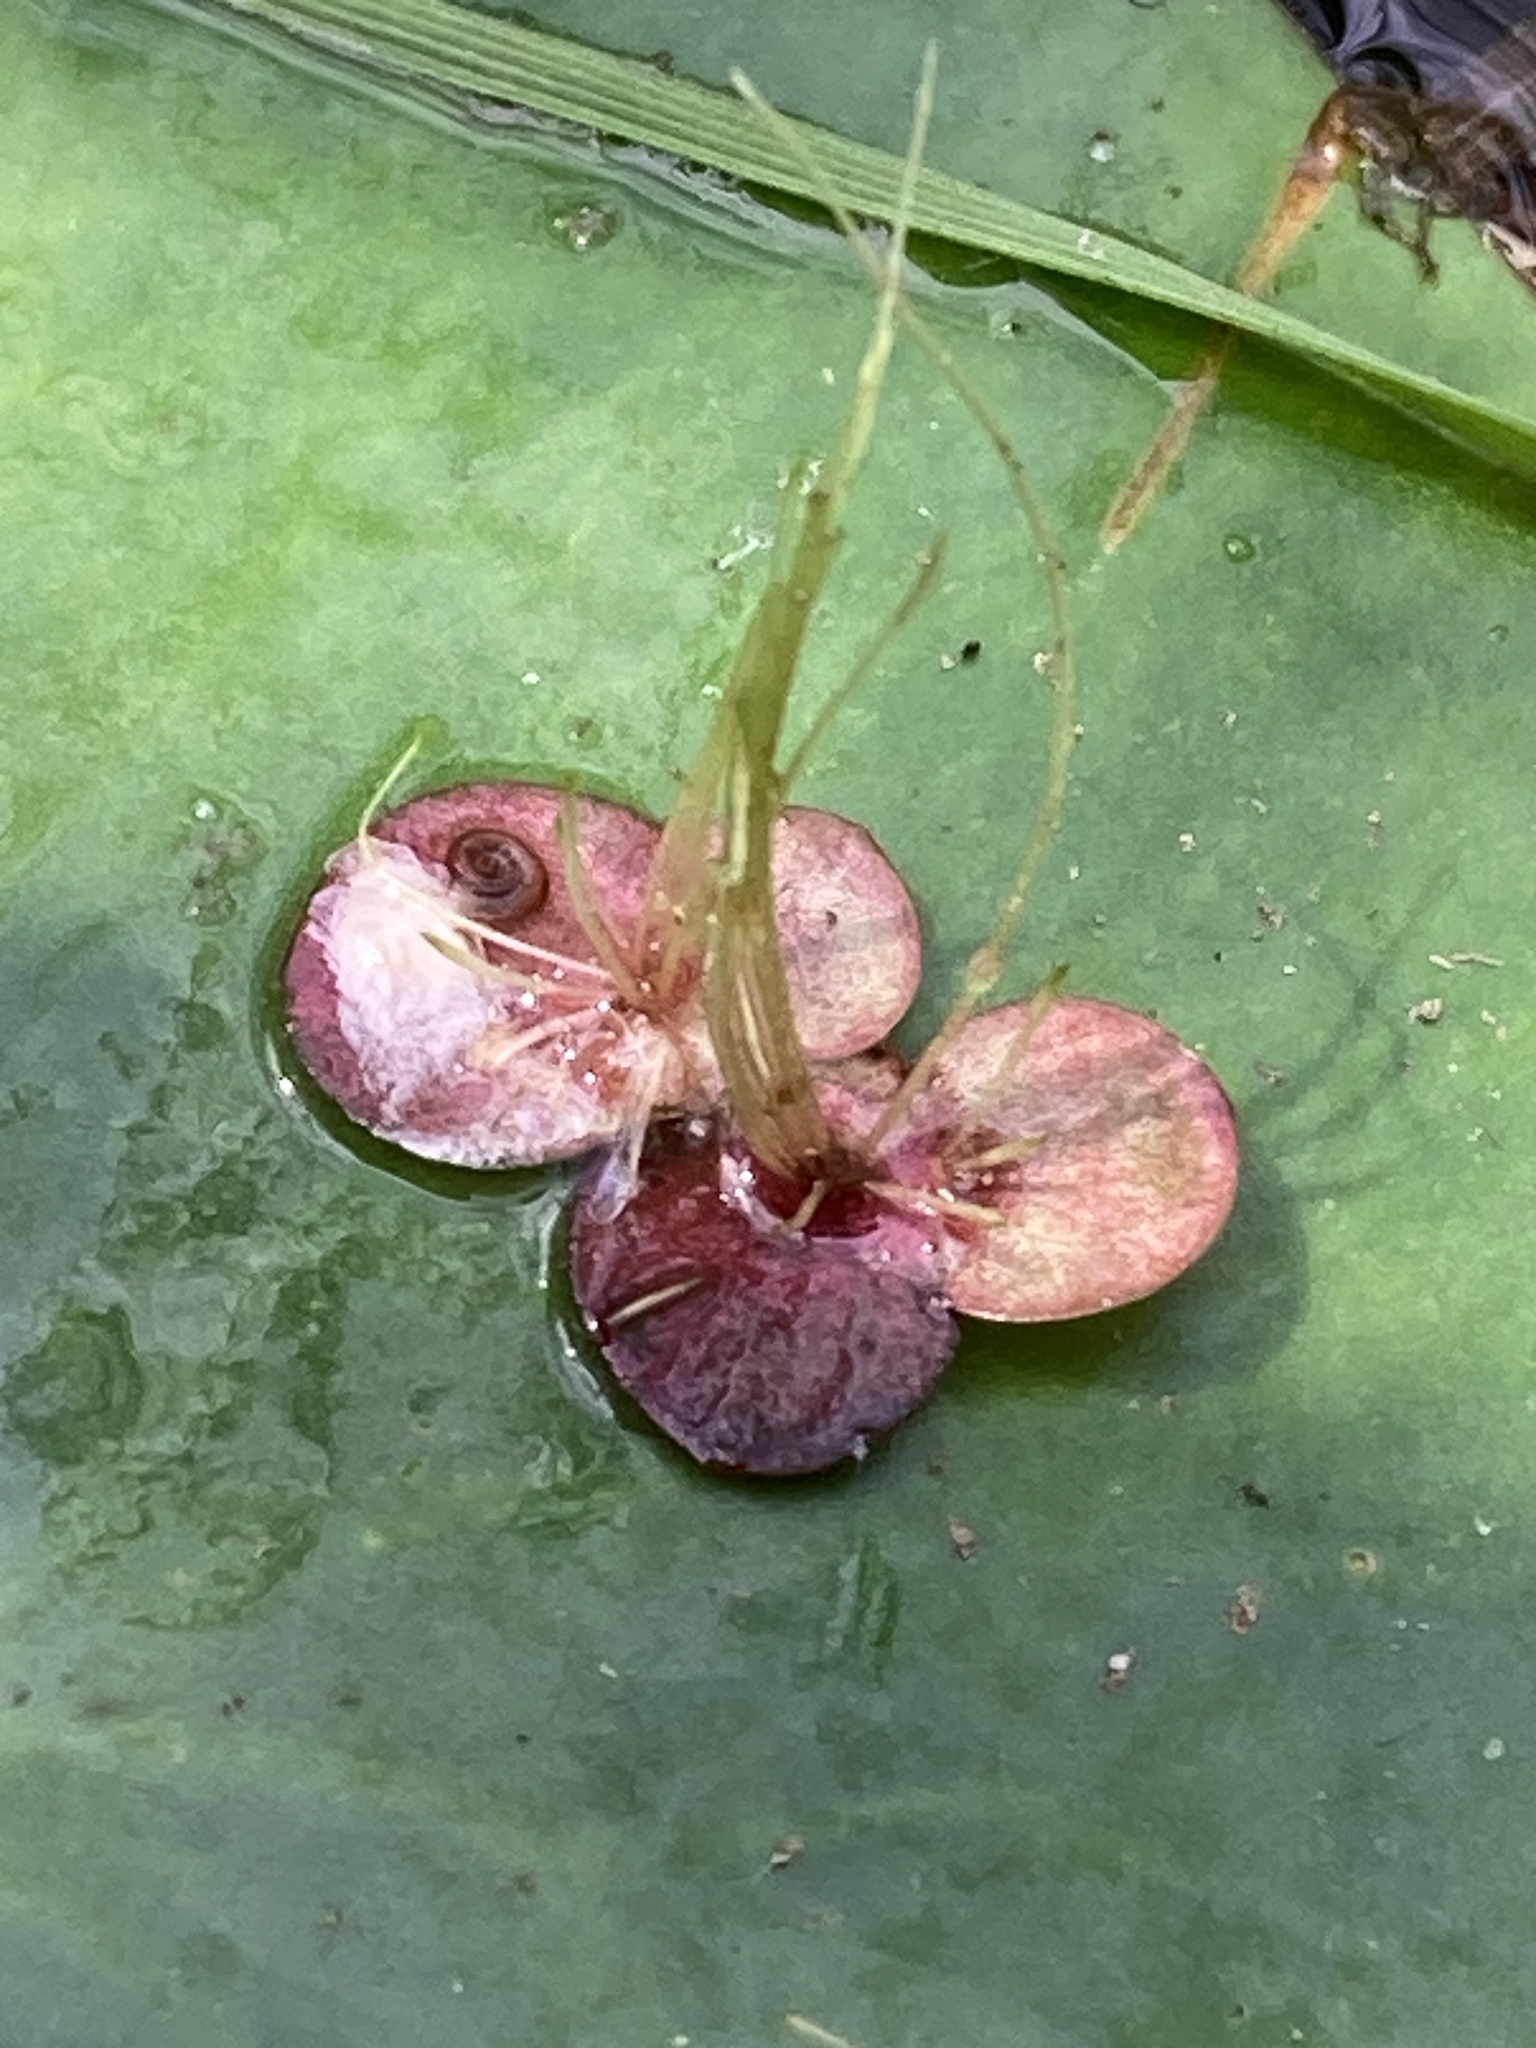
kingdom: Plantae
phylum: Tracheophyta
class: Liliopsida
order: Alismatales
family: Araceae
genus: Spirodela
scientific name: Spirodela polyrhiza
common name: Great duckweed
